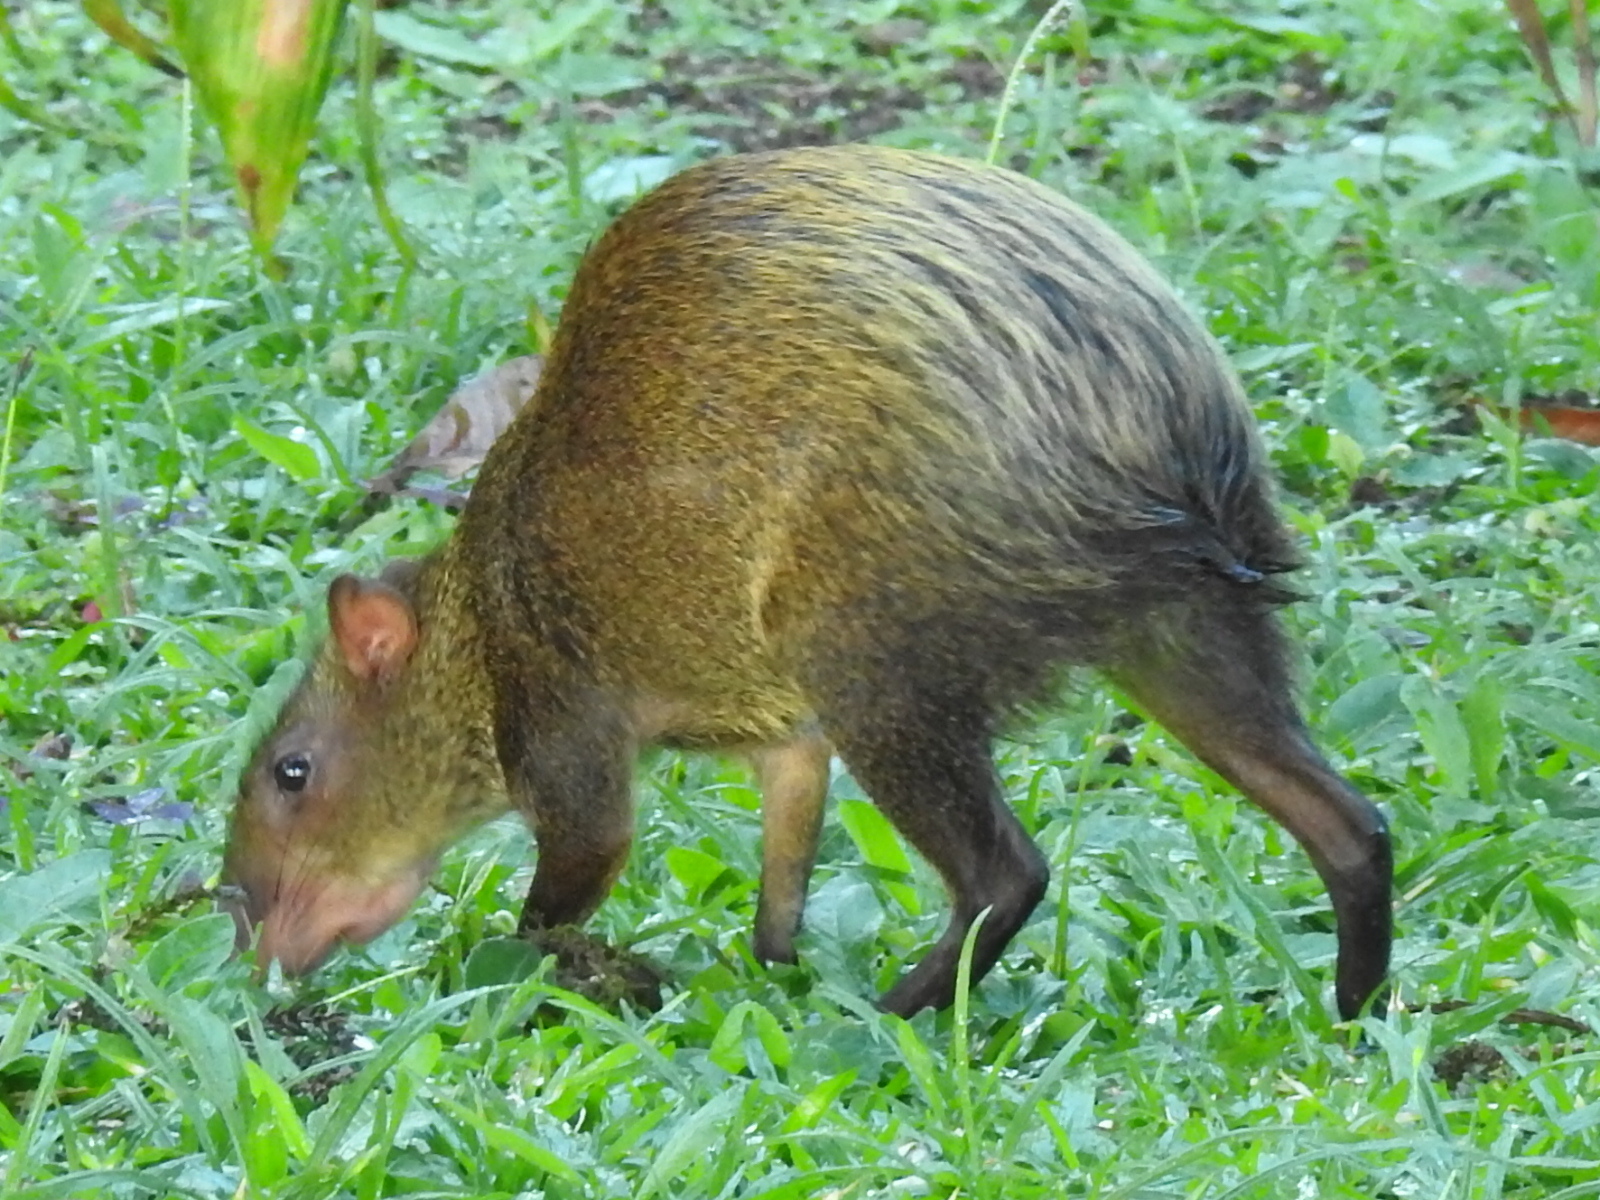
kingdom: Animalia
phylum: Chordata
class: Mammalia
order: Rodentia
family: Dasyproctidae
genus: Dasyprocta
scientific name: Dasyprocta punctata
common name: Central american agouti
